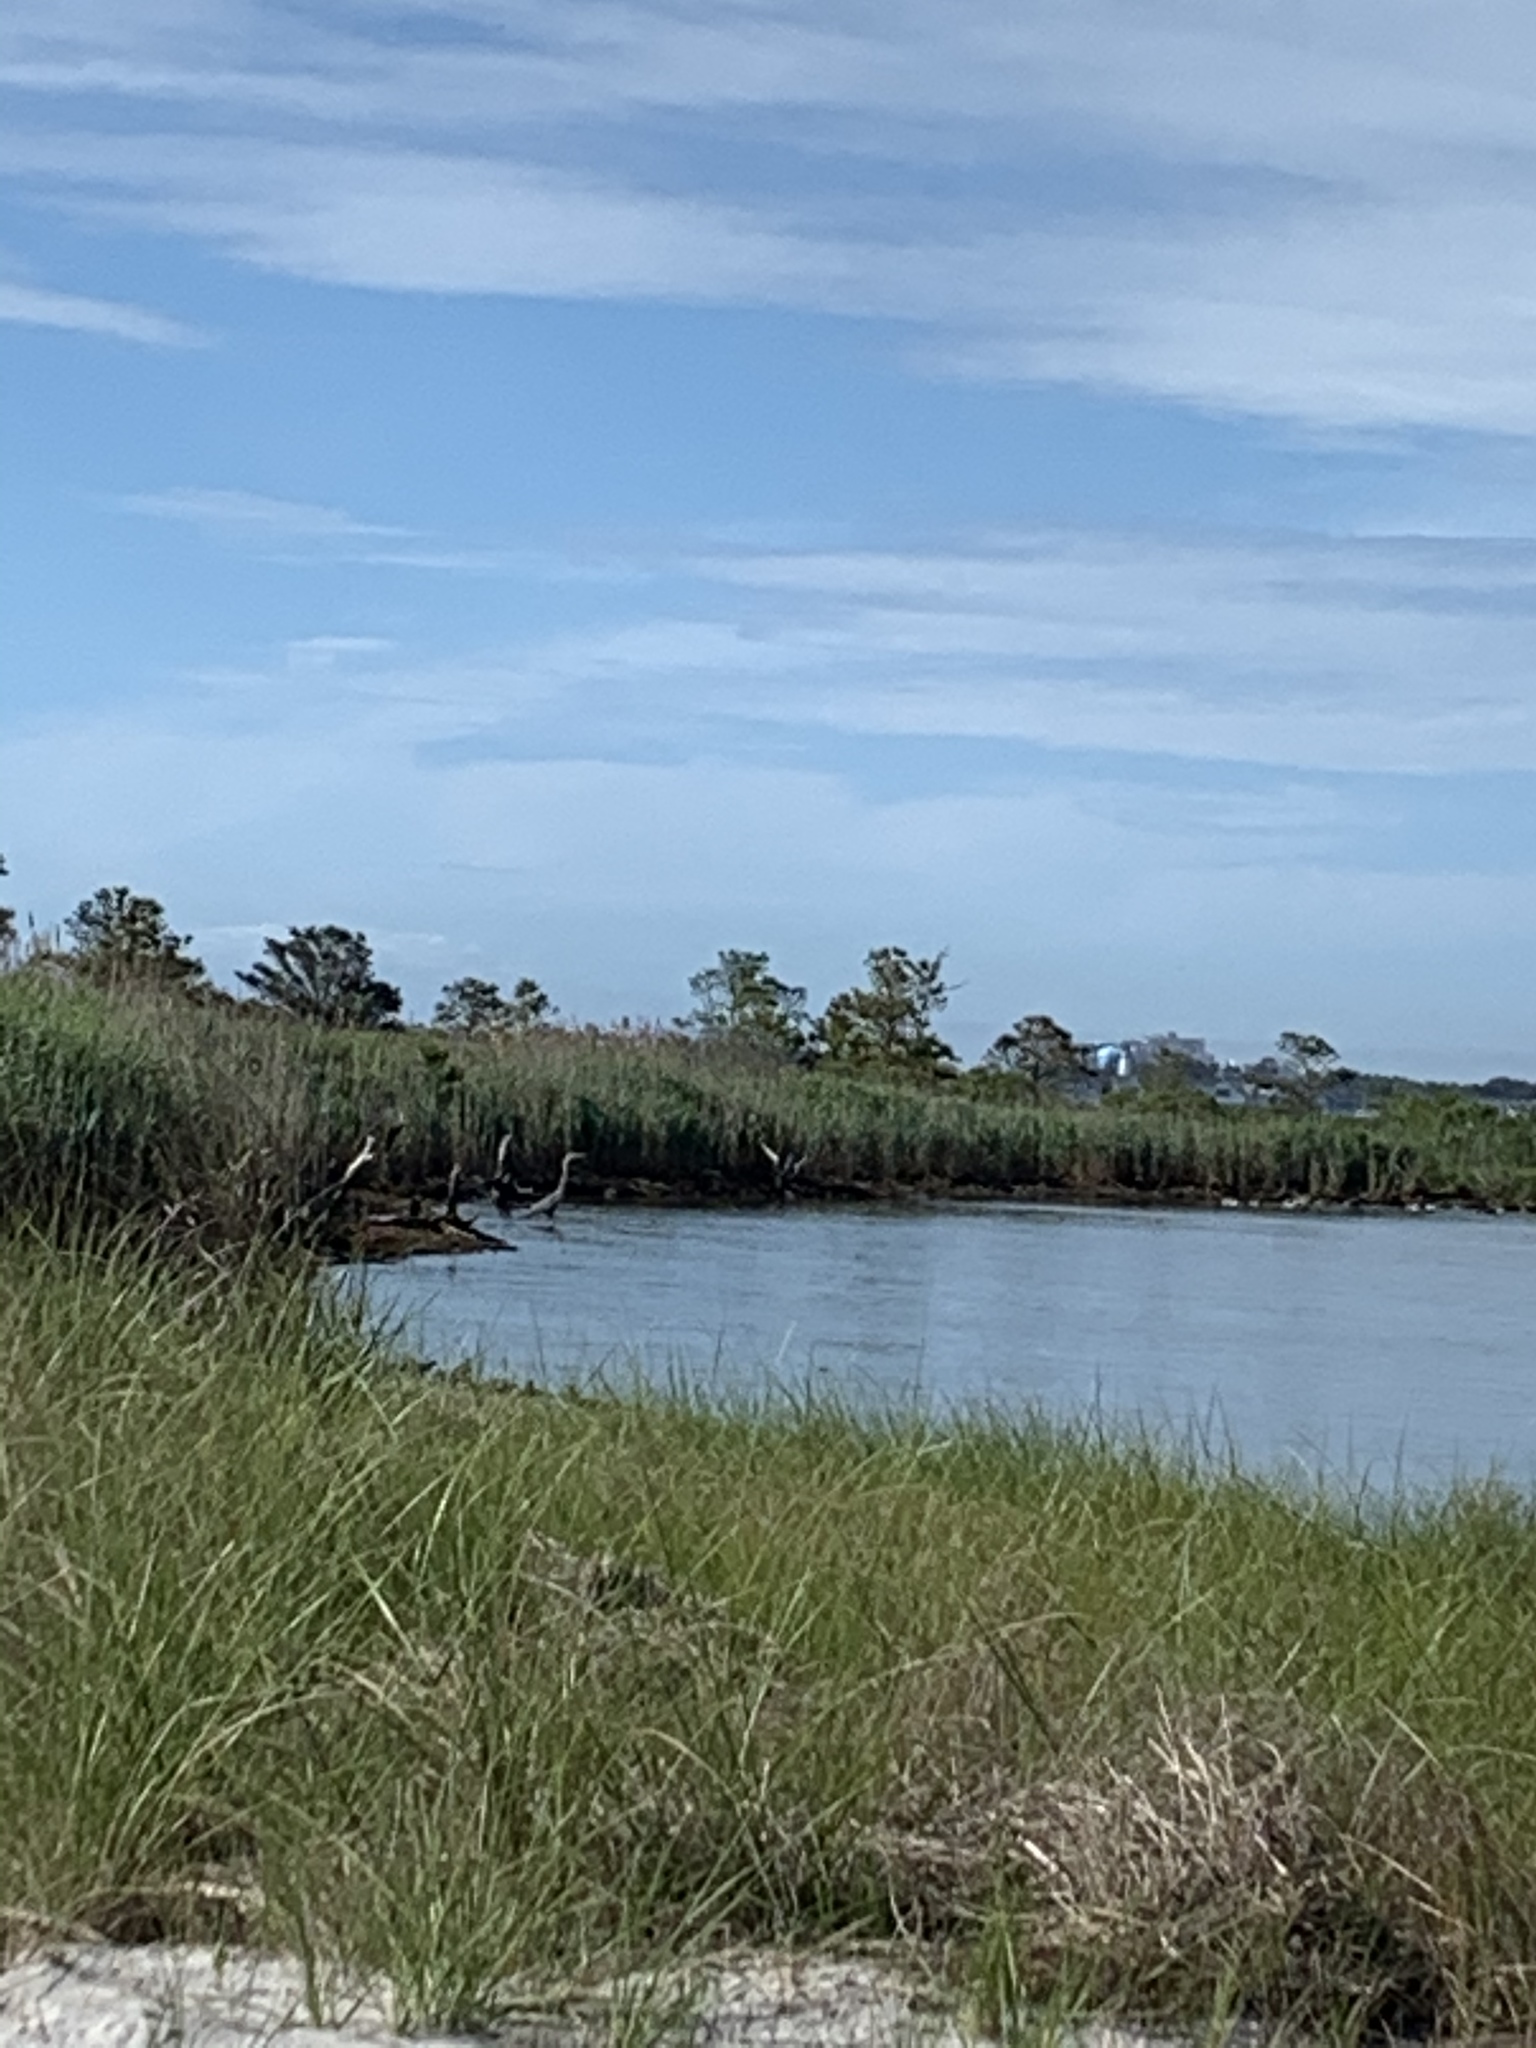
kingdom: Animalia
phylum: Chordata
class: Aves
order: Pelecaniformes
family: Ardeidae
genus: Ardea
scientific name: Ardea herodias
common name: Great blue heron
